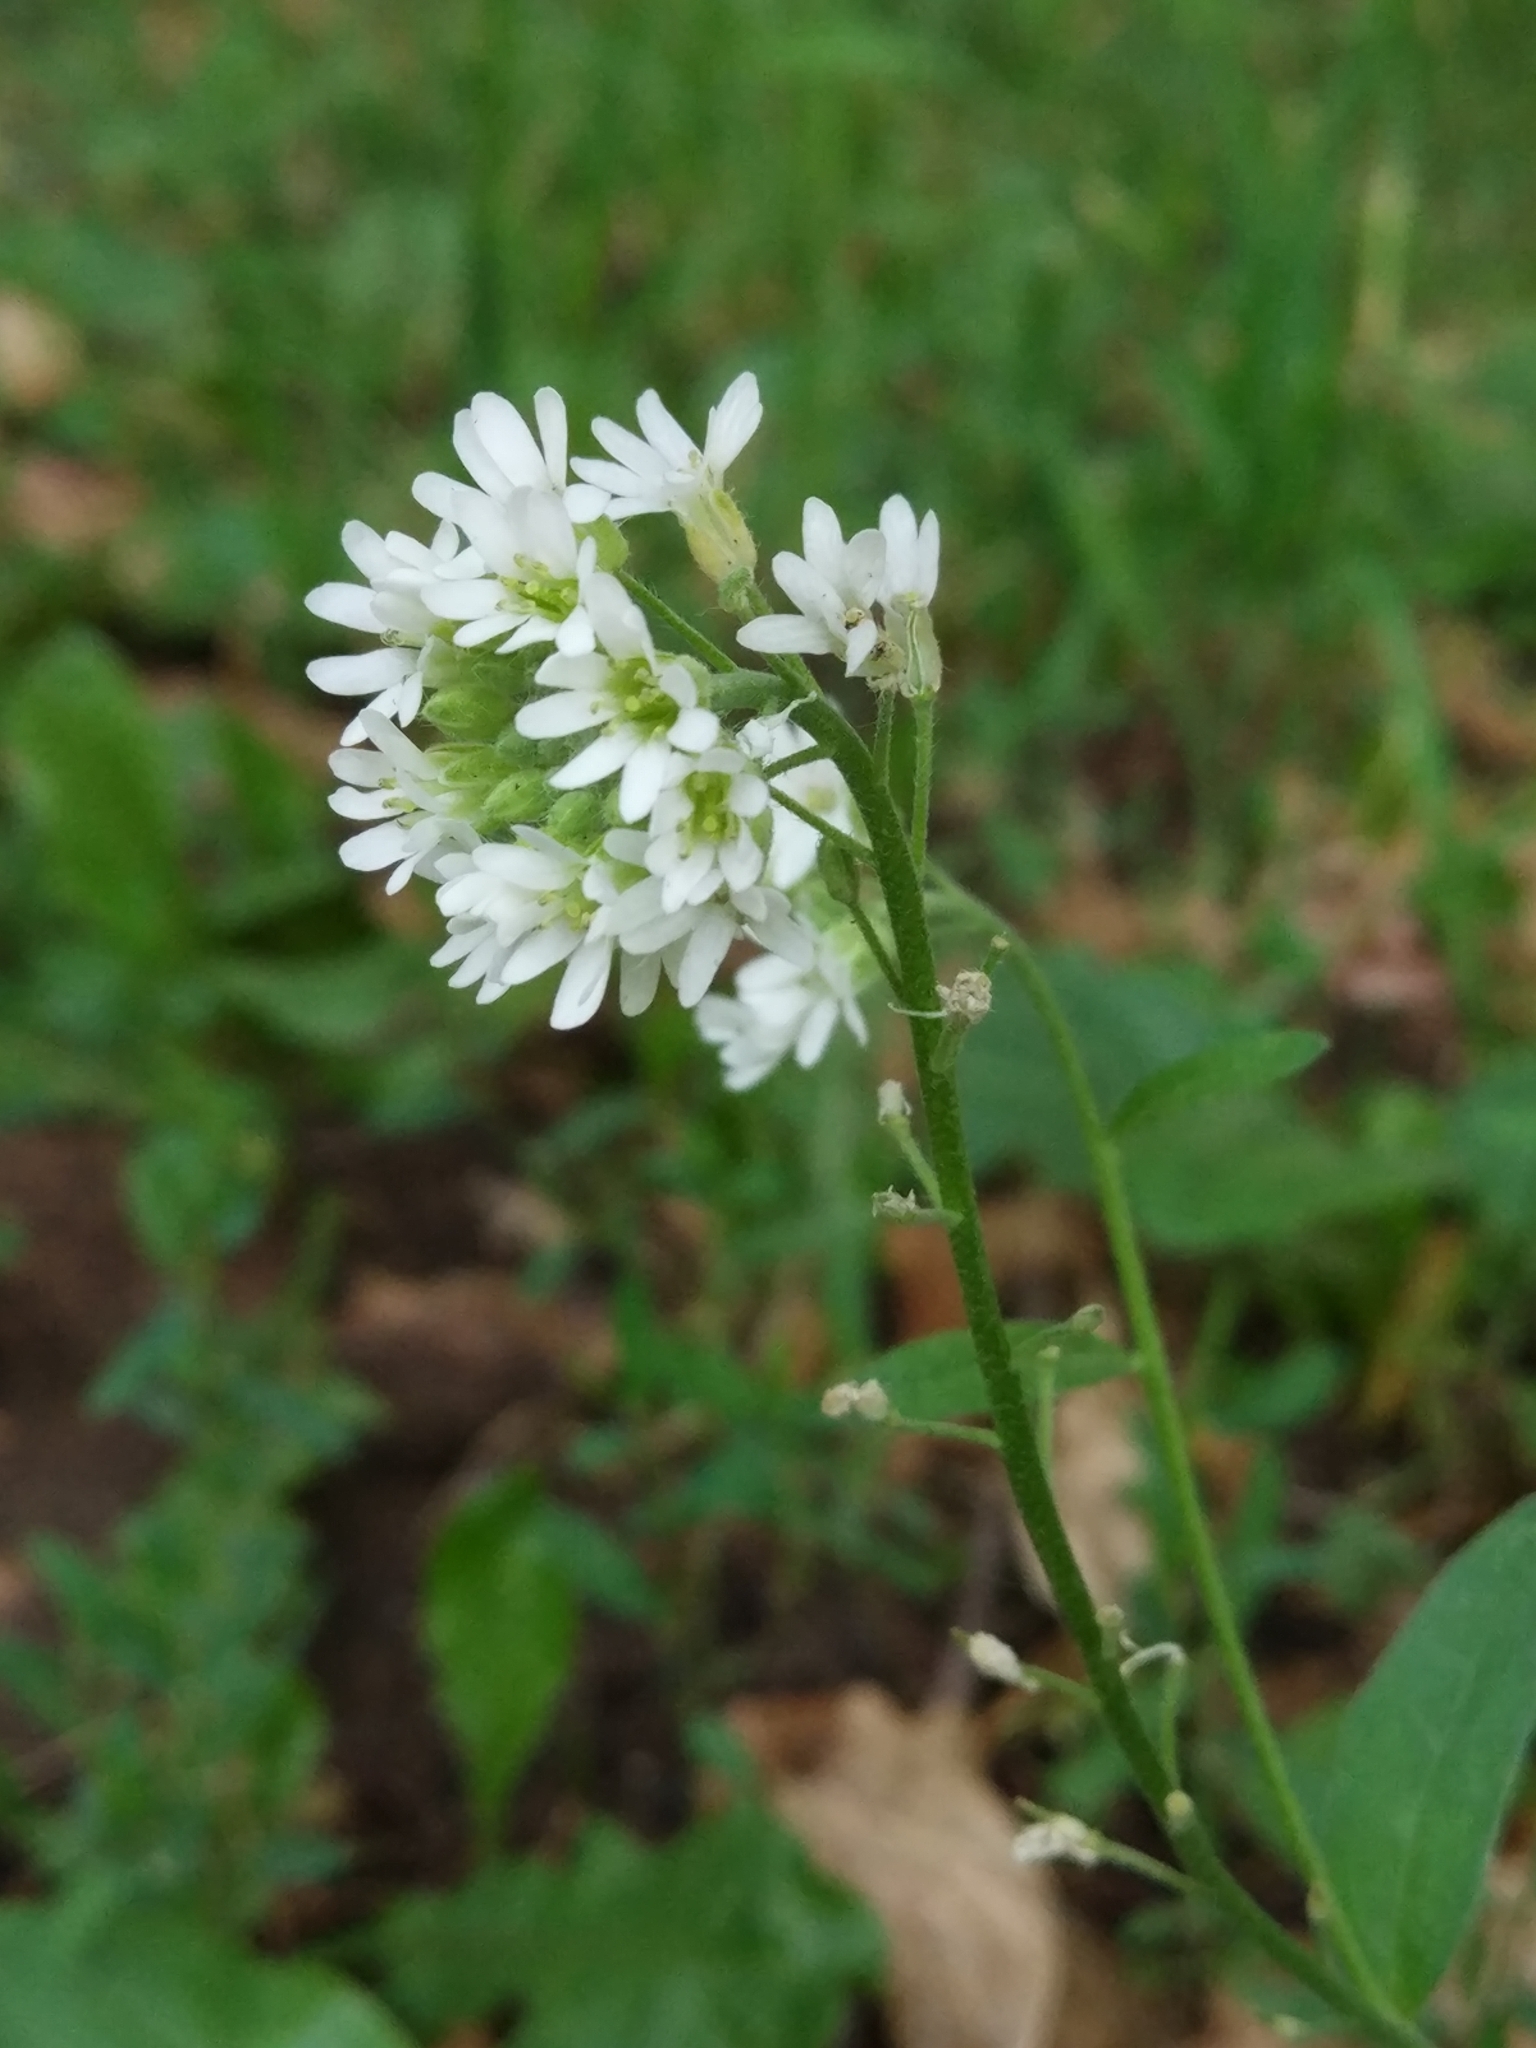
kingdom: Plantae
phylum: Tracheophyta
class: Magnoliopsida
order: Brassicales
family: Brassicaceae
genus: Berteroa
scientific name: Berteroa incana
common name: Hoary alison
